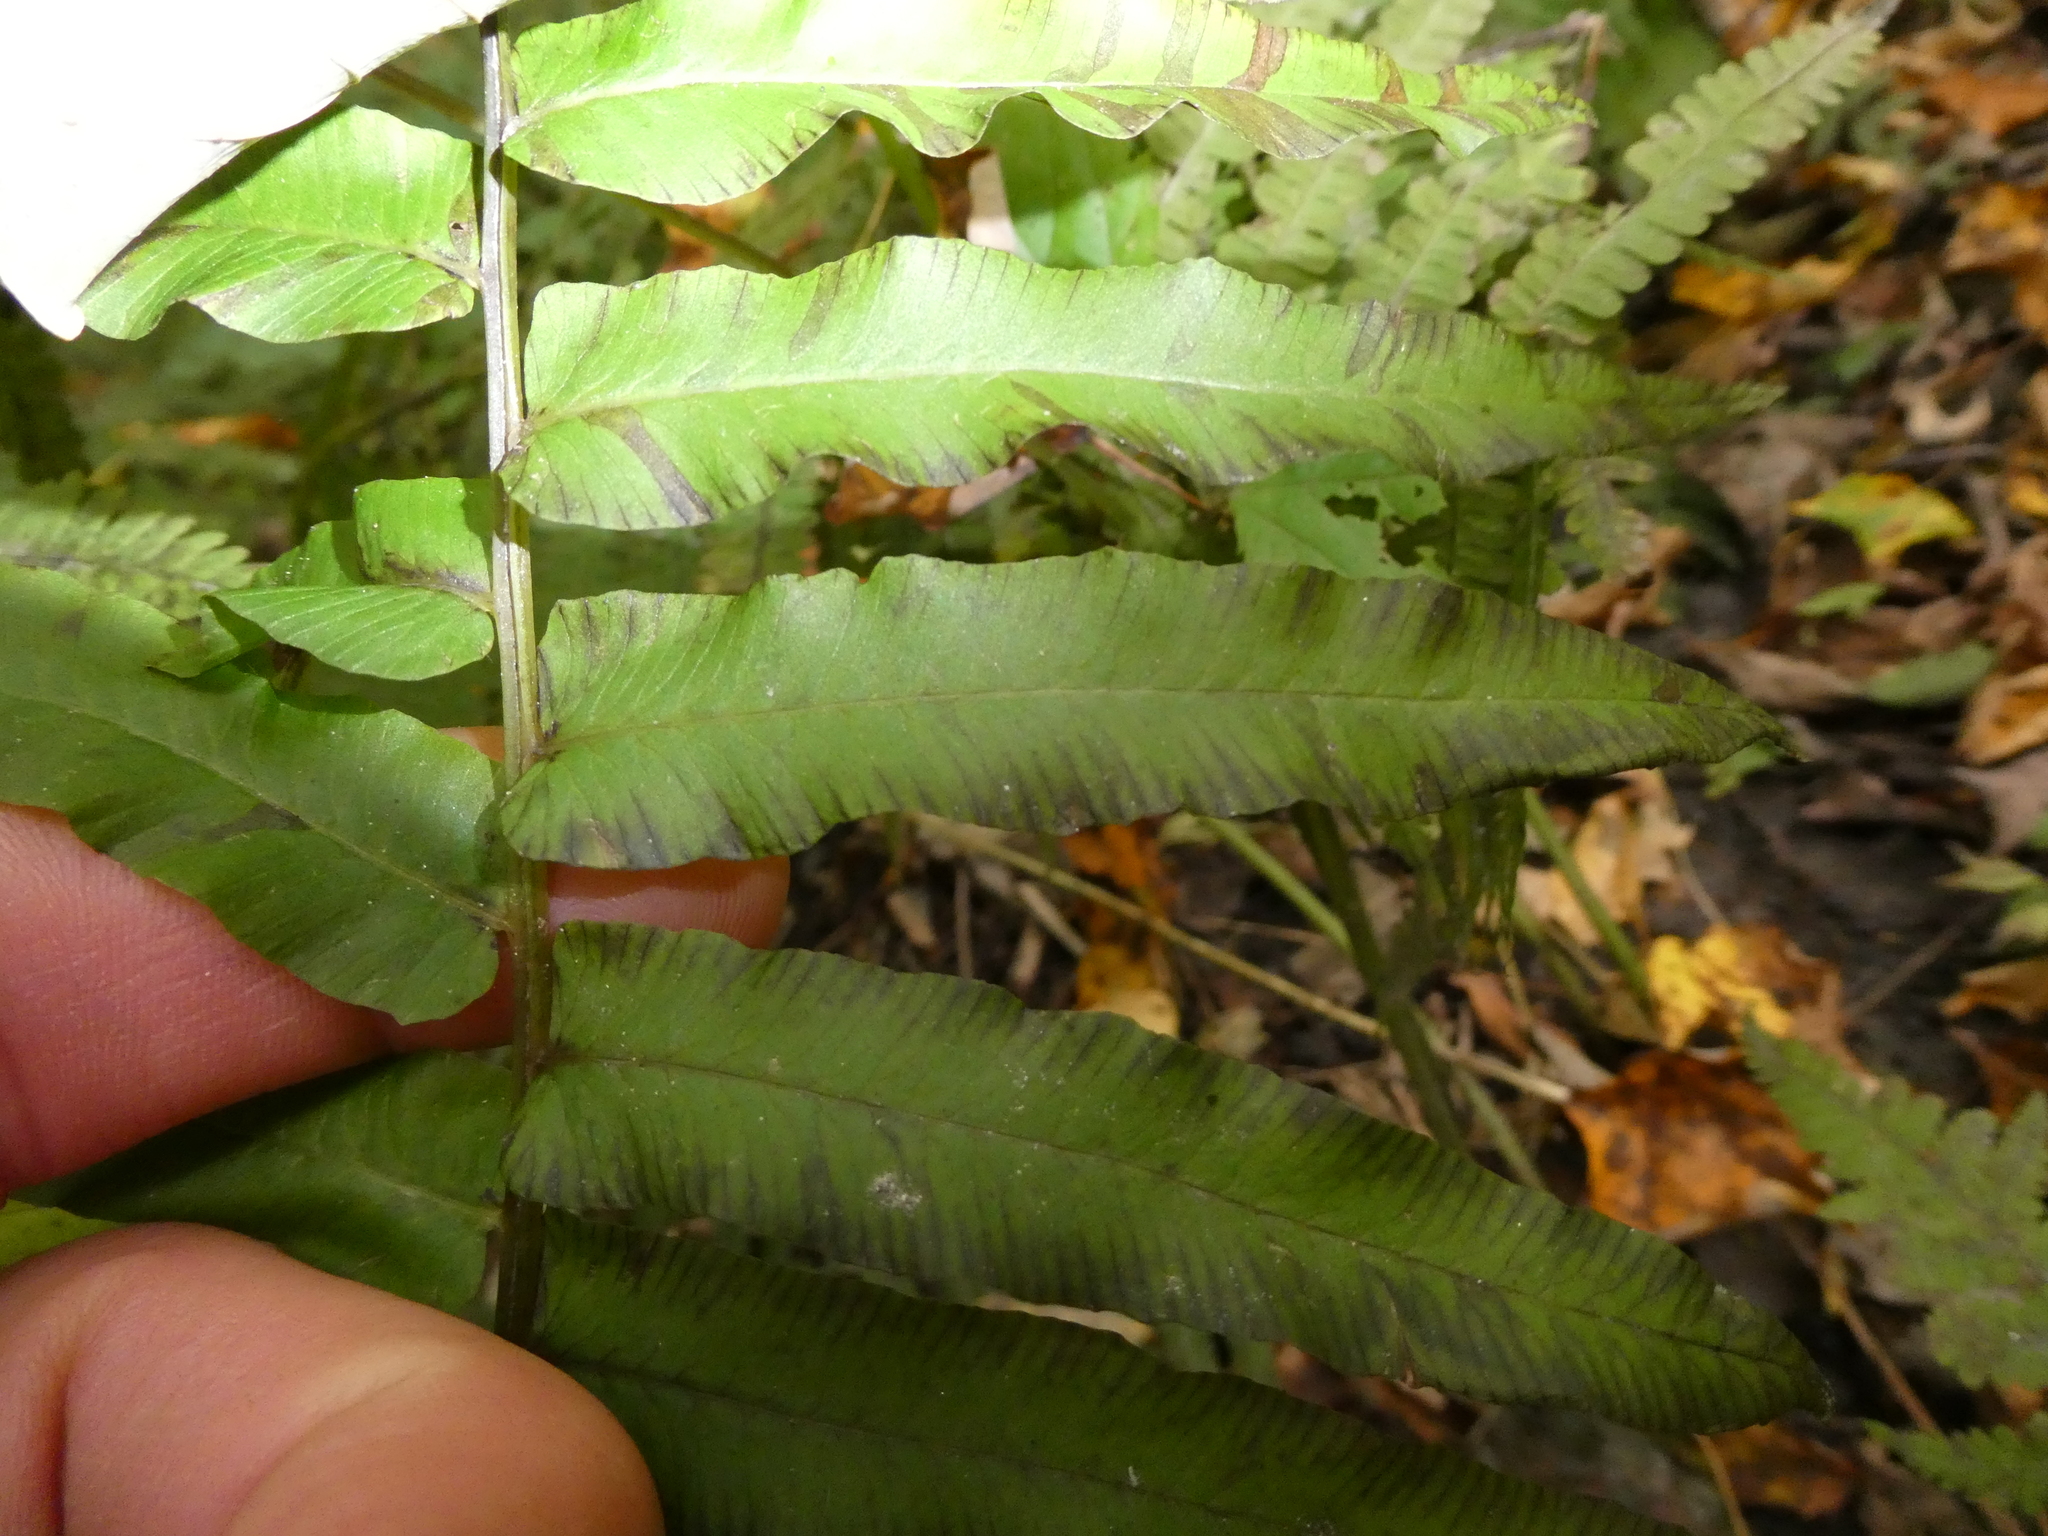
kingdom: Plantae
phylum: Tracheophyta
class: Polypodiopsida
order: Polypodiales
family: Diplaziopsidaceae
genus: Homalosorus
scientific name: Homalosorus pycnocarpos
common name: Glade fern
